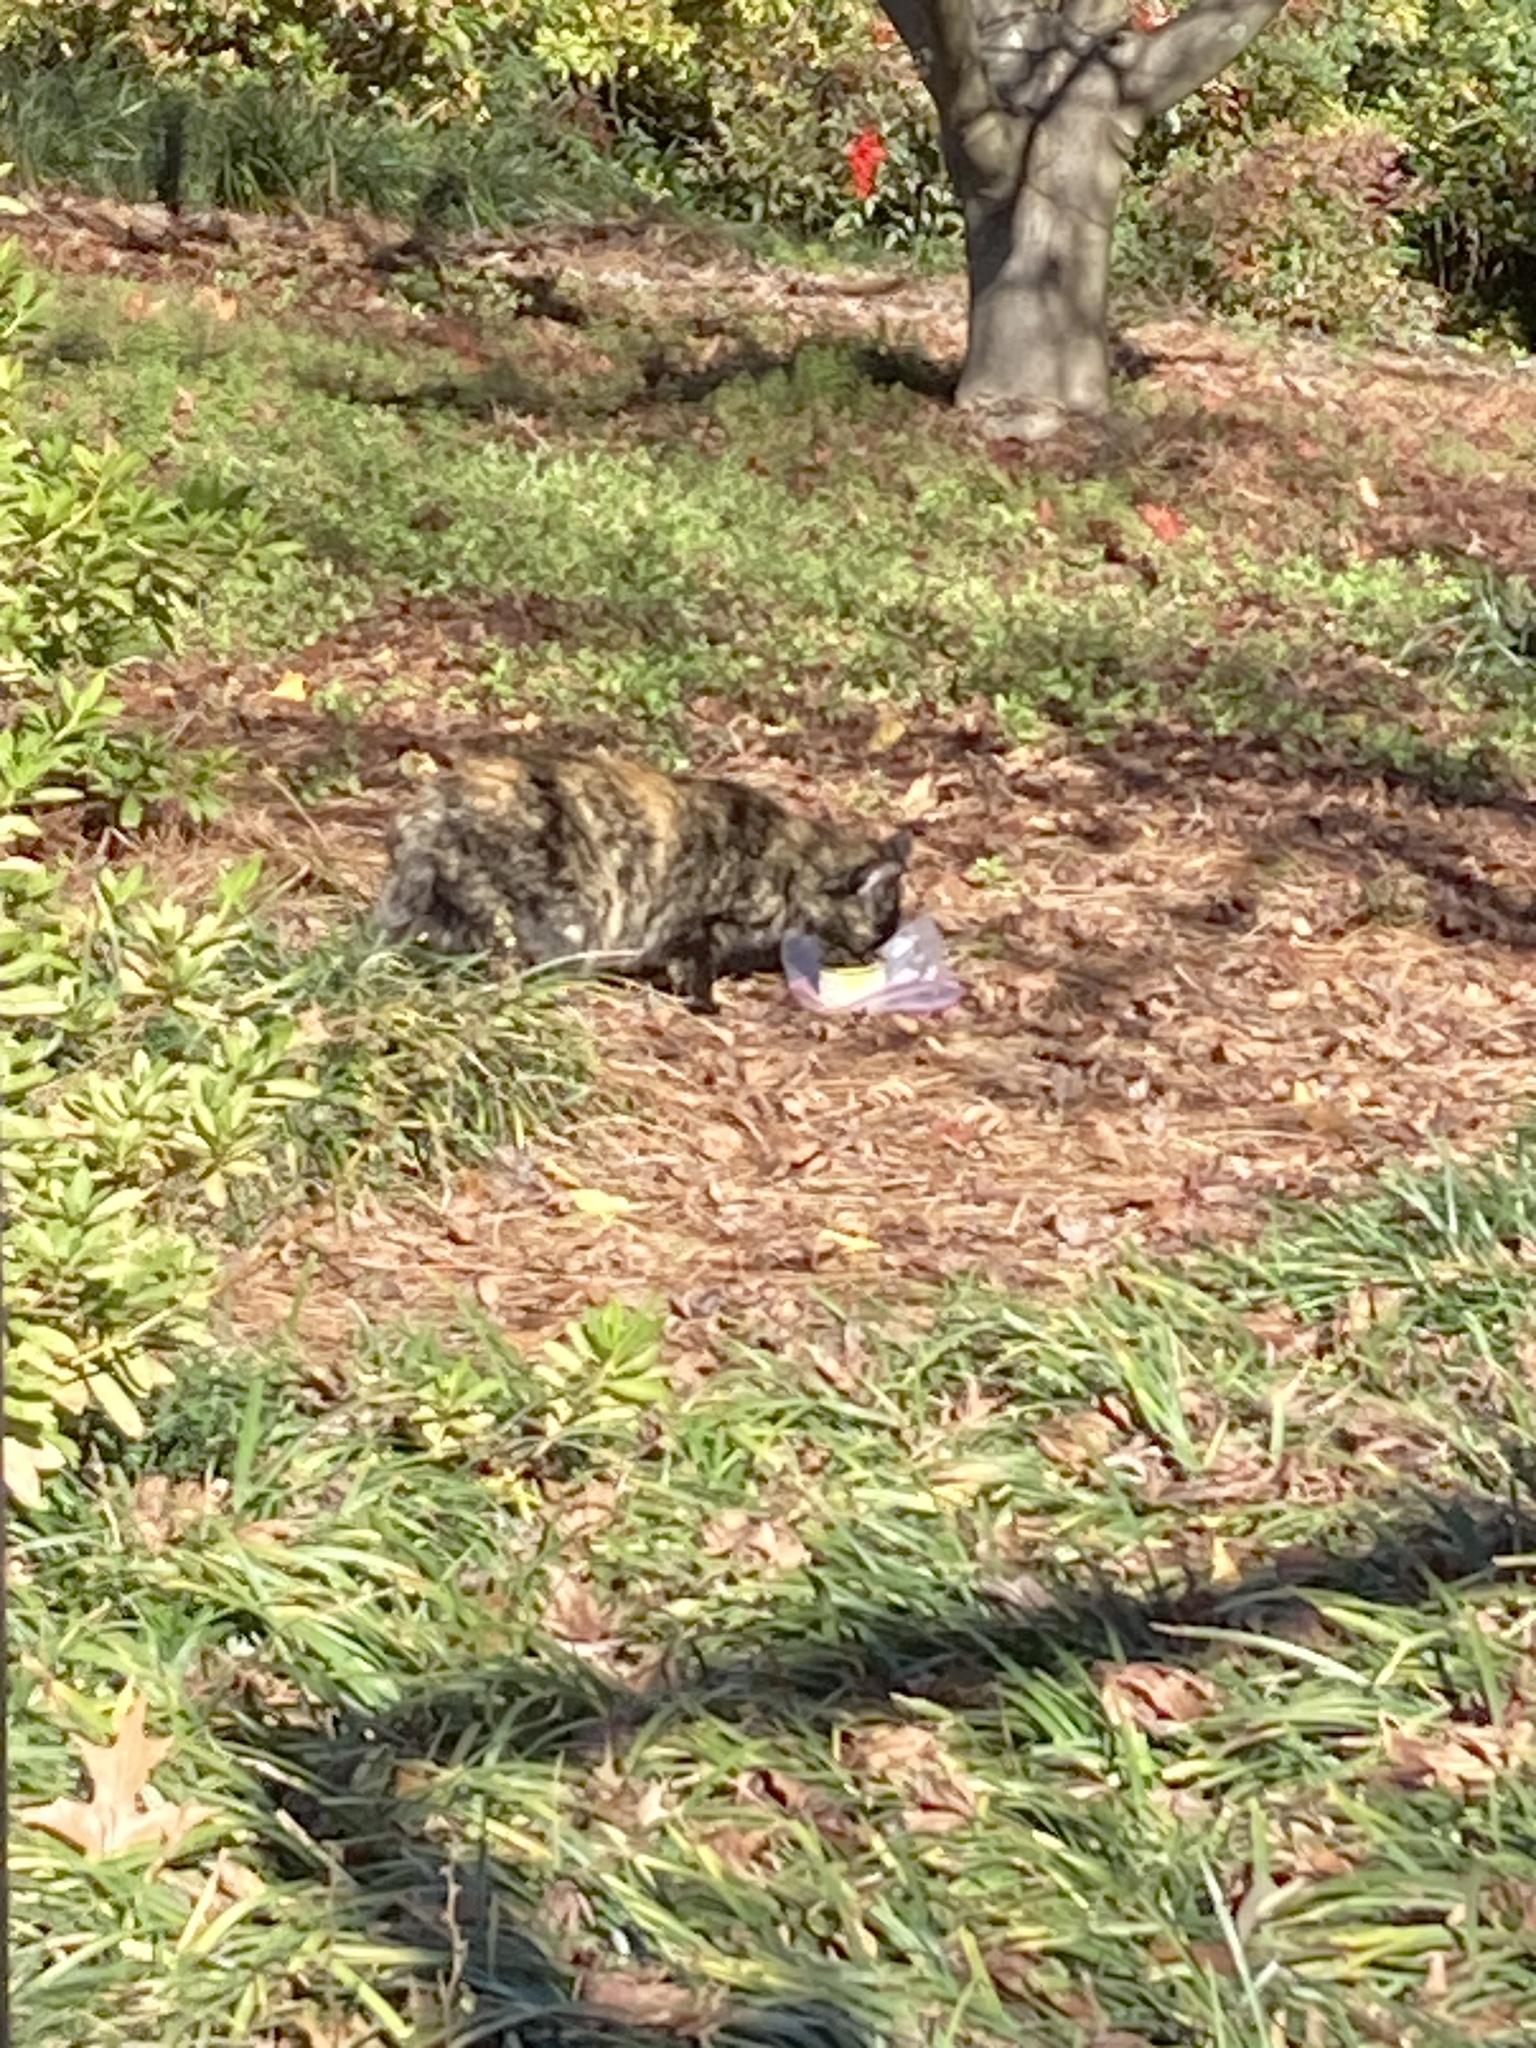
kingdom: Animalia
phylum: Chordata
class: Mammalia
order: Carnivora
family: Felidae
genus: Felis
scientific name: Felis catus
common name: Domestic cat
